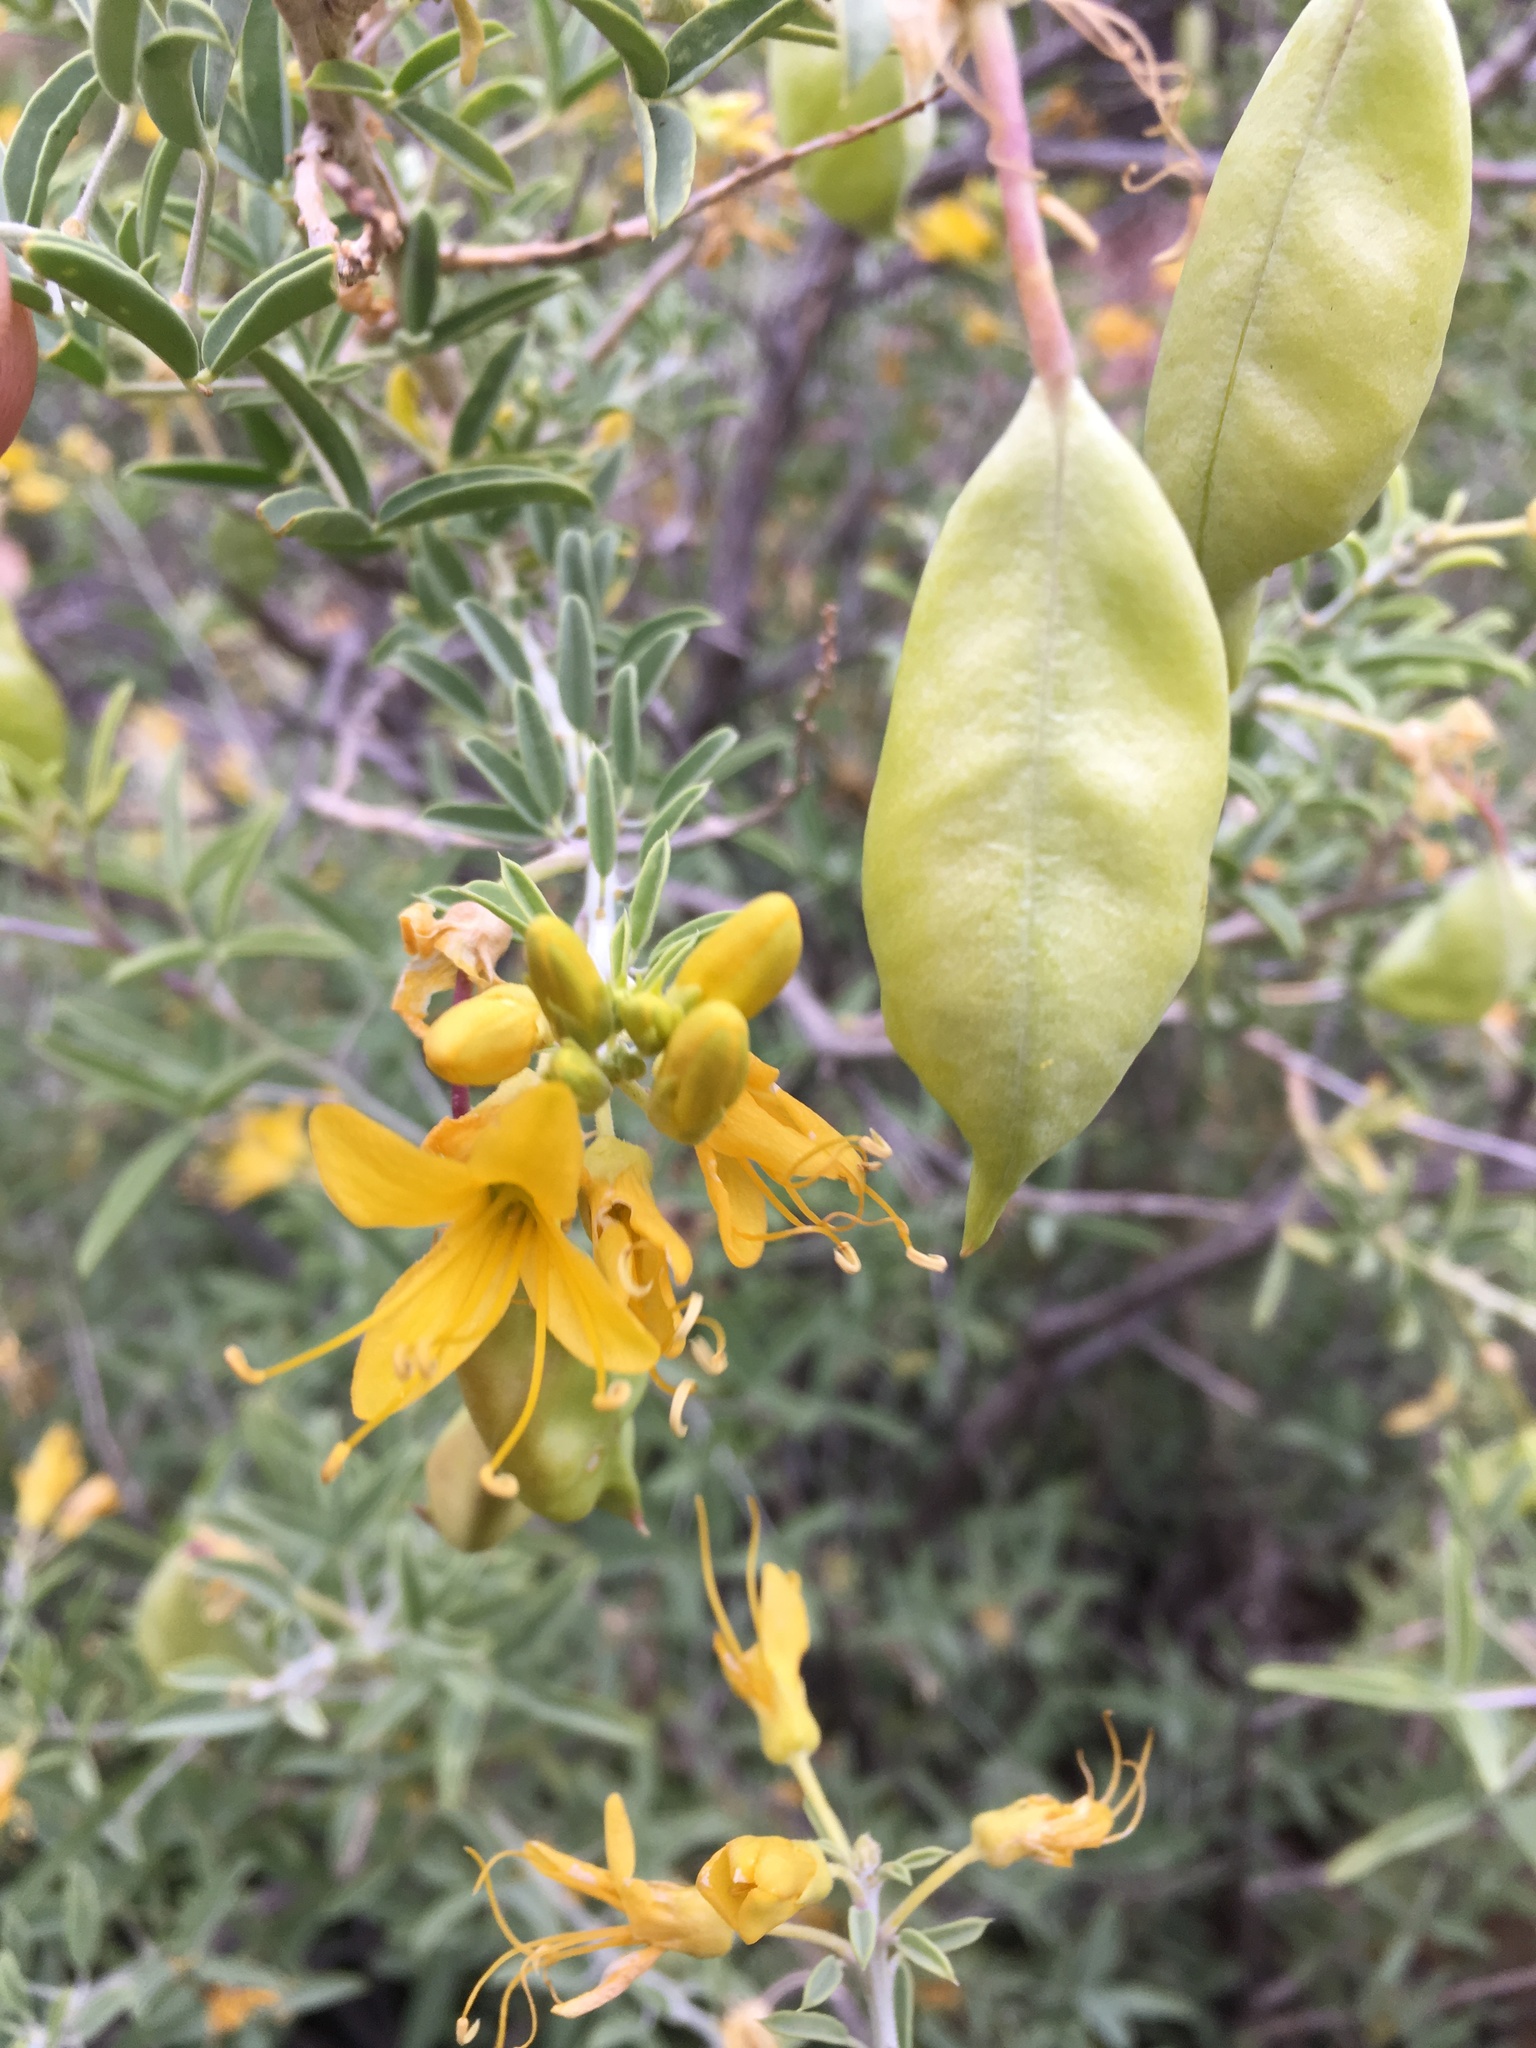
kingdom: Plantae
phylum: Tracheophyta
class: Magnoliopsida
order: Brassicales
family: Cleomaceae
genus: Cleomella
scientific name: Cleomella arborea
